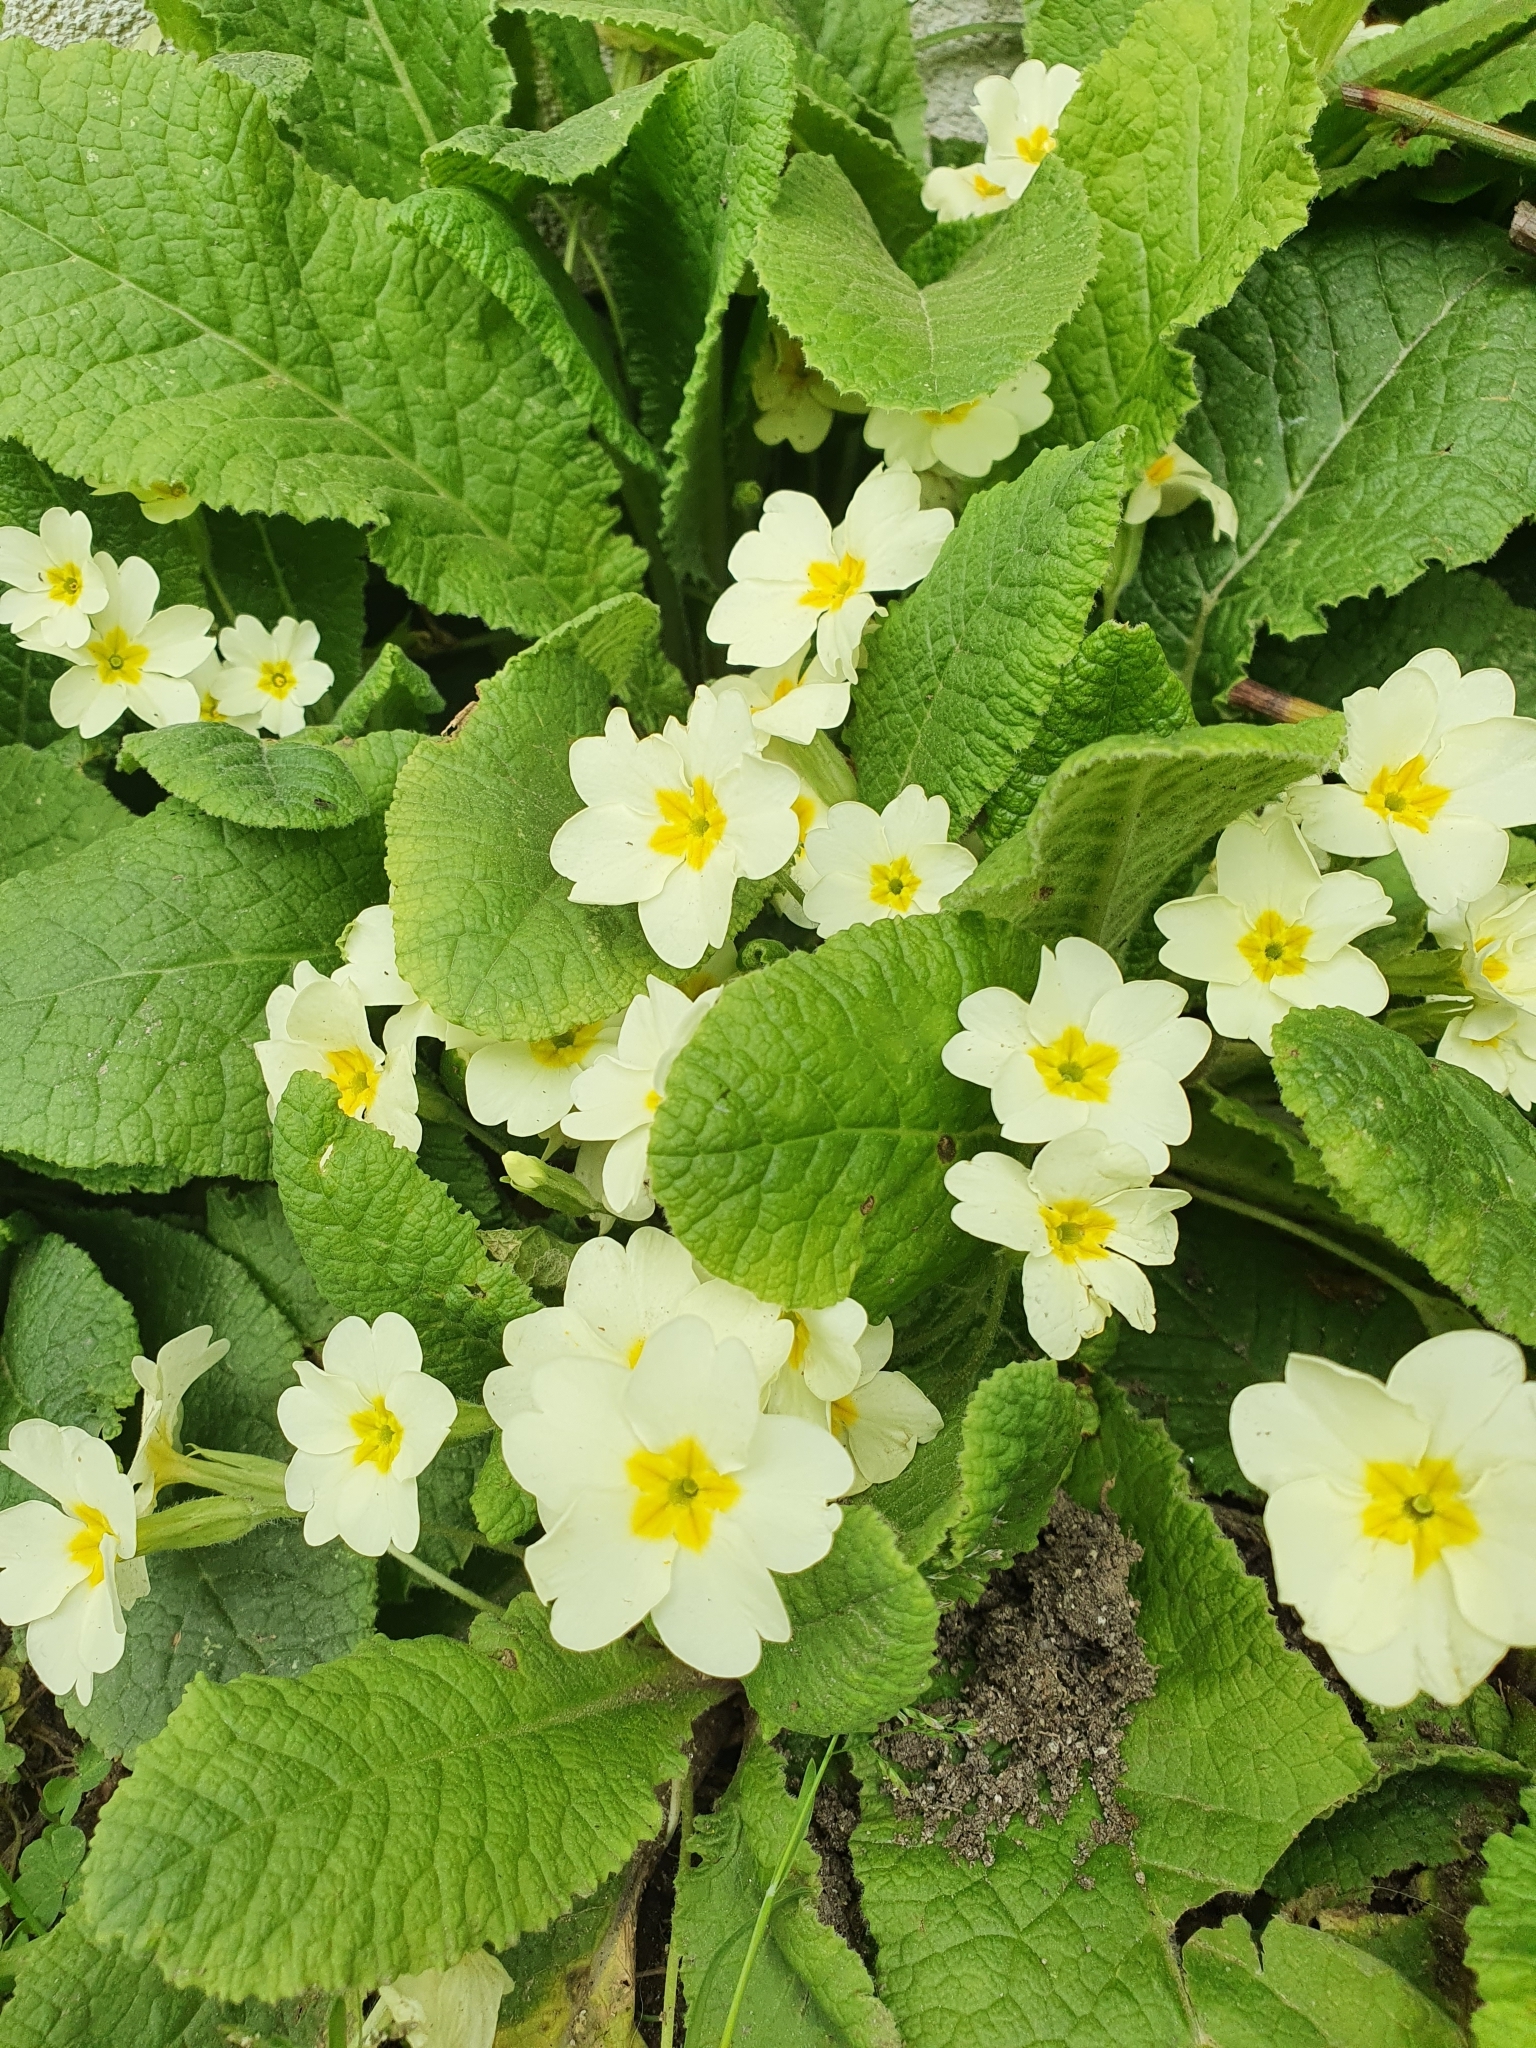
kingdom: Plantae
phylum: Tracheophyta
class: Magnoliopsida
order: Ericales
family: Primulaceae
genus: Primula
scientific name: Primula vulgaris
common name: Primrose
